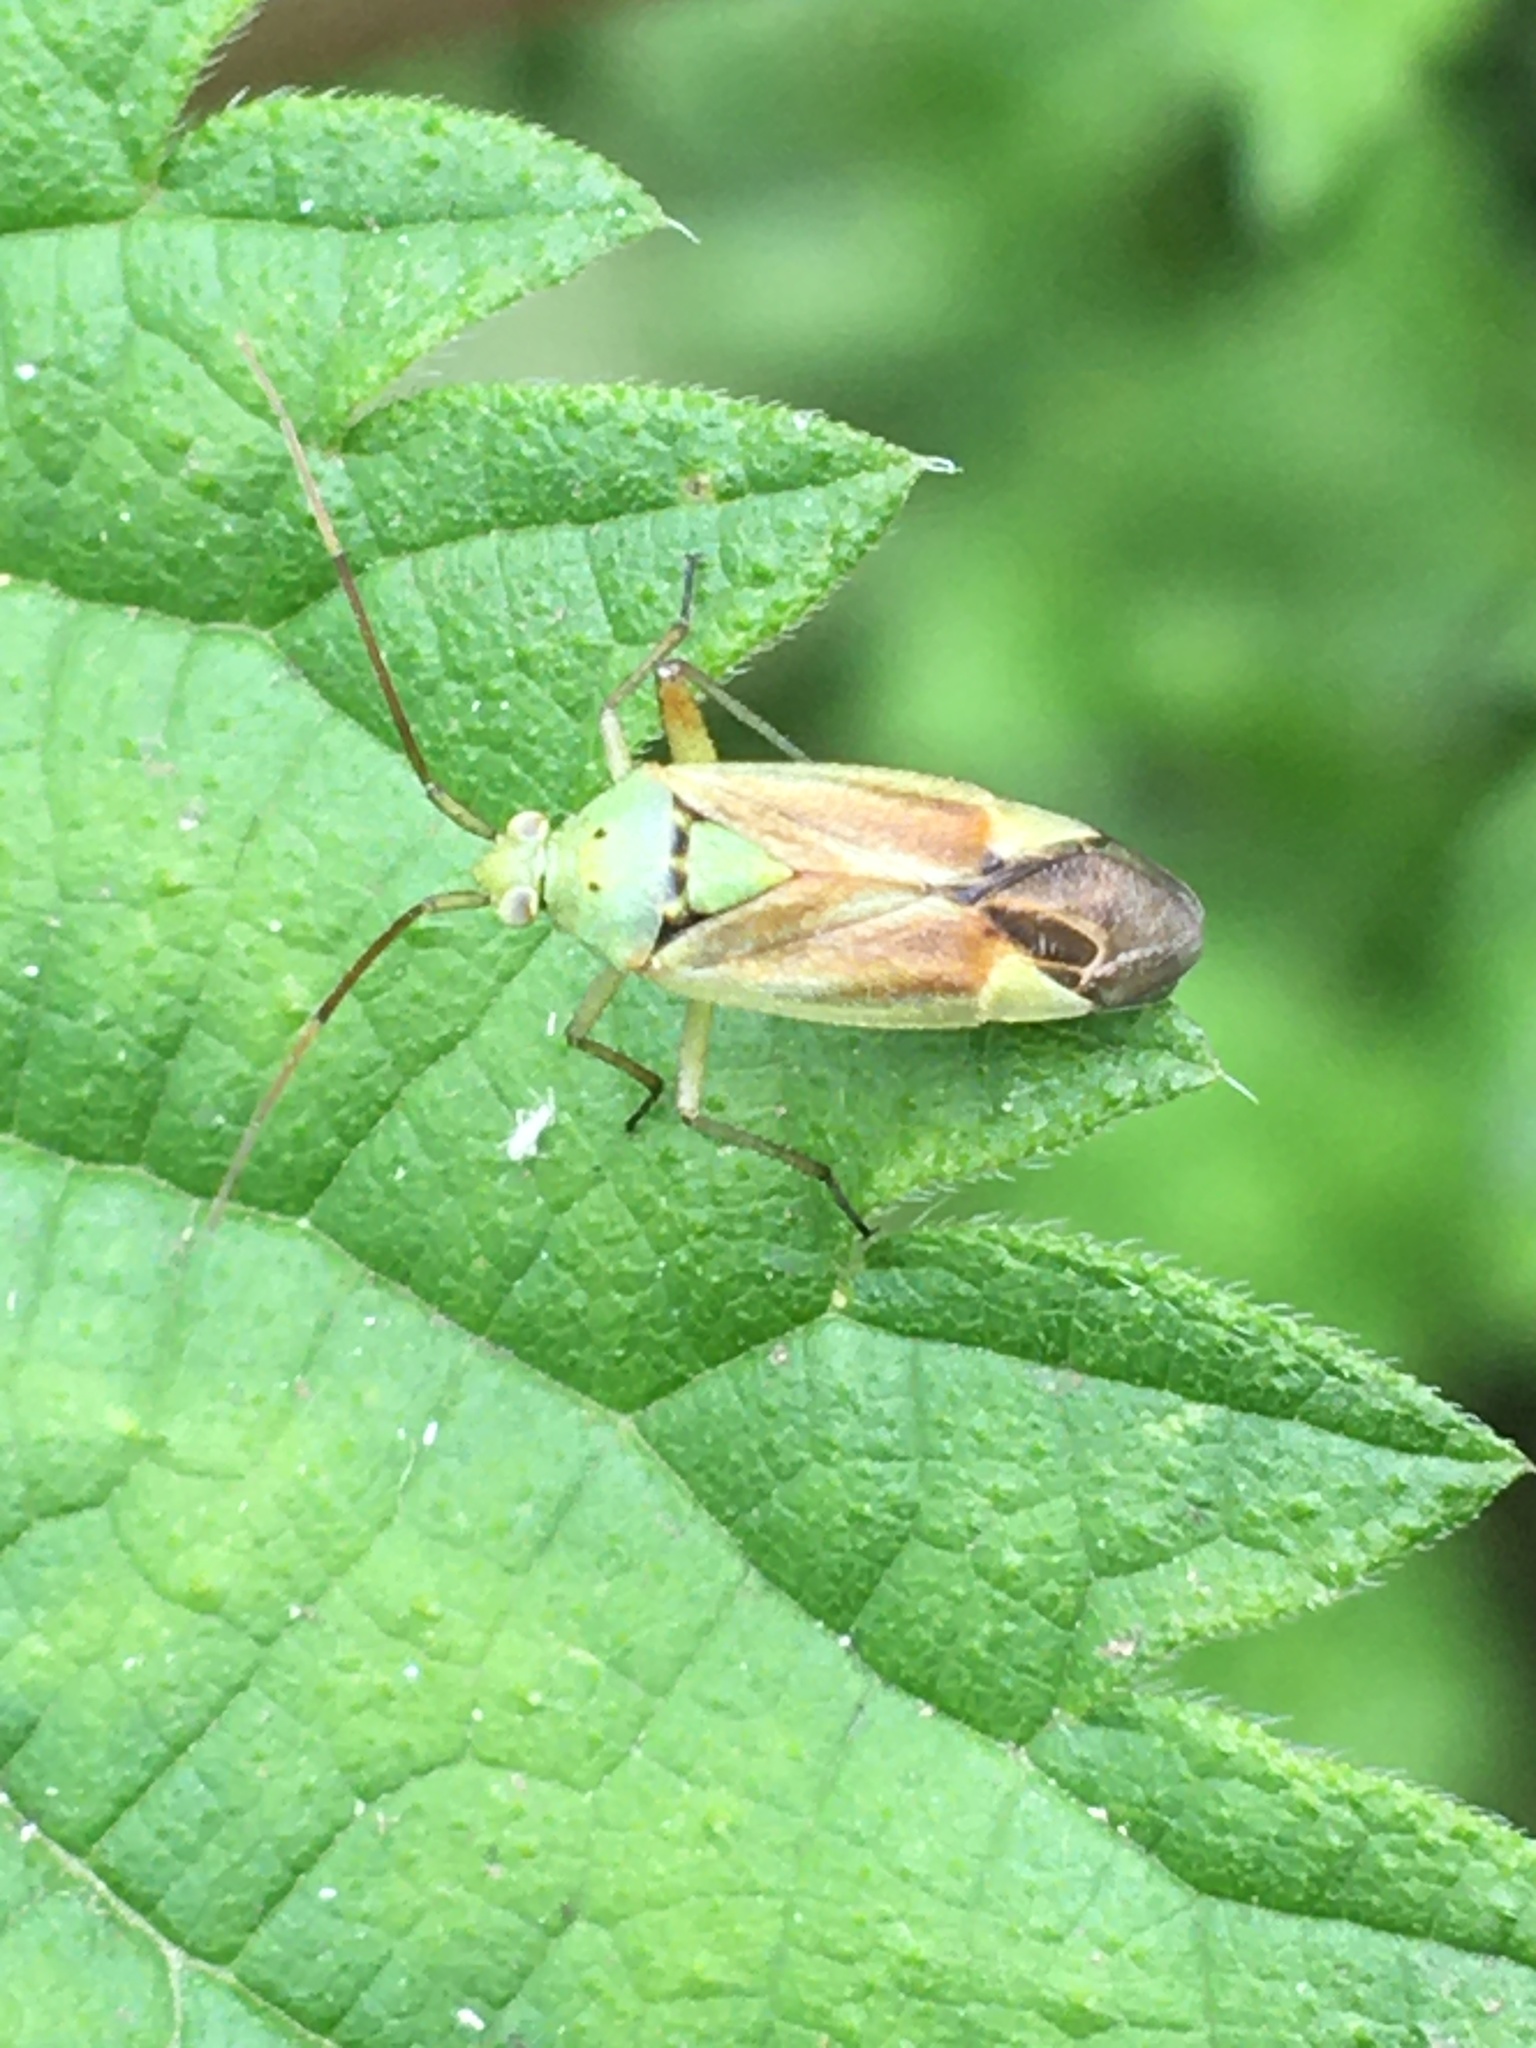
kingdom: Animalia
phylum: Arthropoda
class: Insecta
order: Hemiptera
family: Miridae
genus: Closterotomus
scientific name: Closterotomus norvegicus
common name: Plant bug
